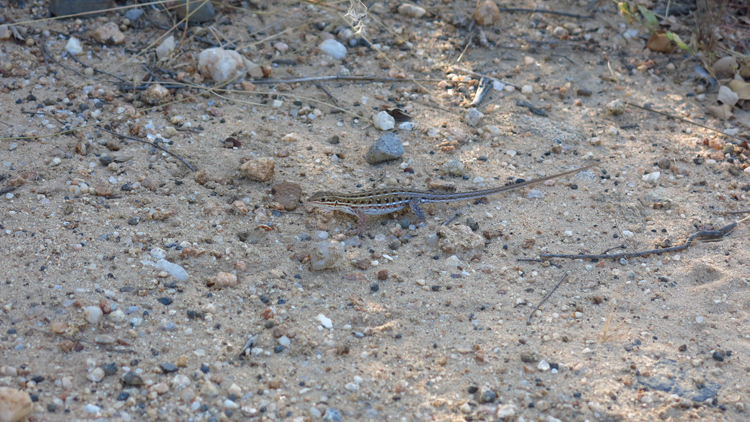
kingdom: Animalia
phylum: Chordata
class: Squamata
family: Lacertidae
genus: Meroles
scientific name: Meroles squamulosus
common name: Common desert lizard
